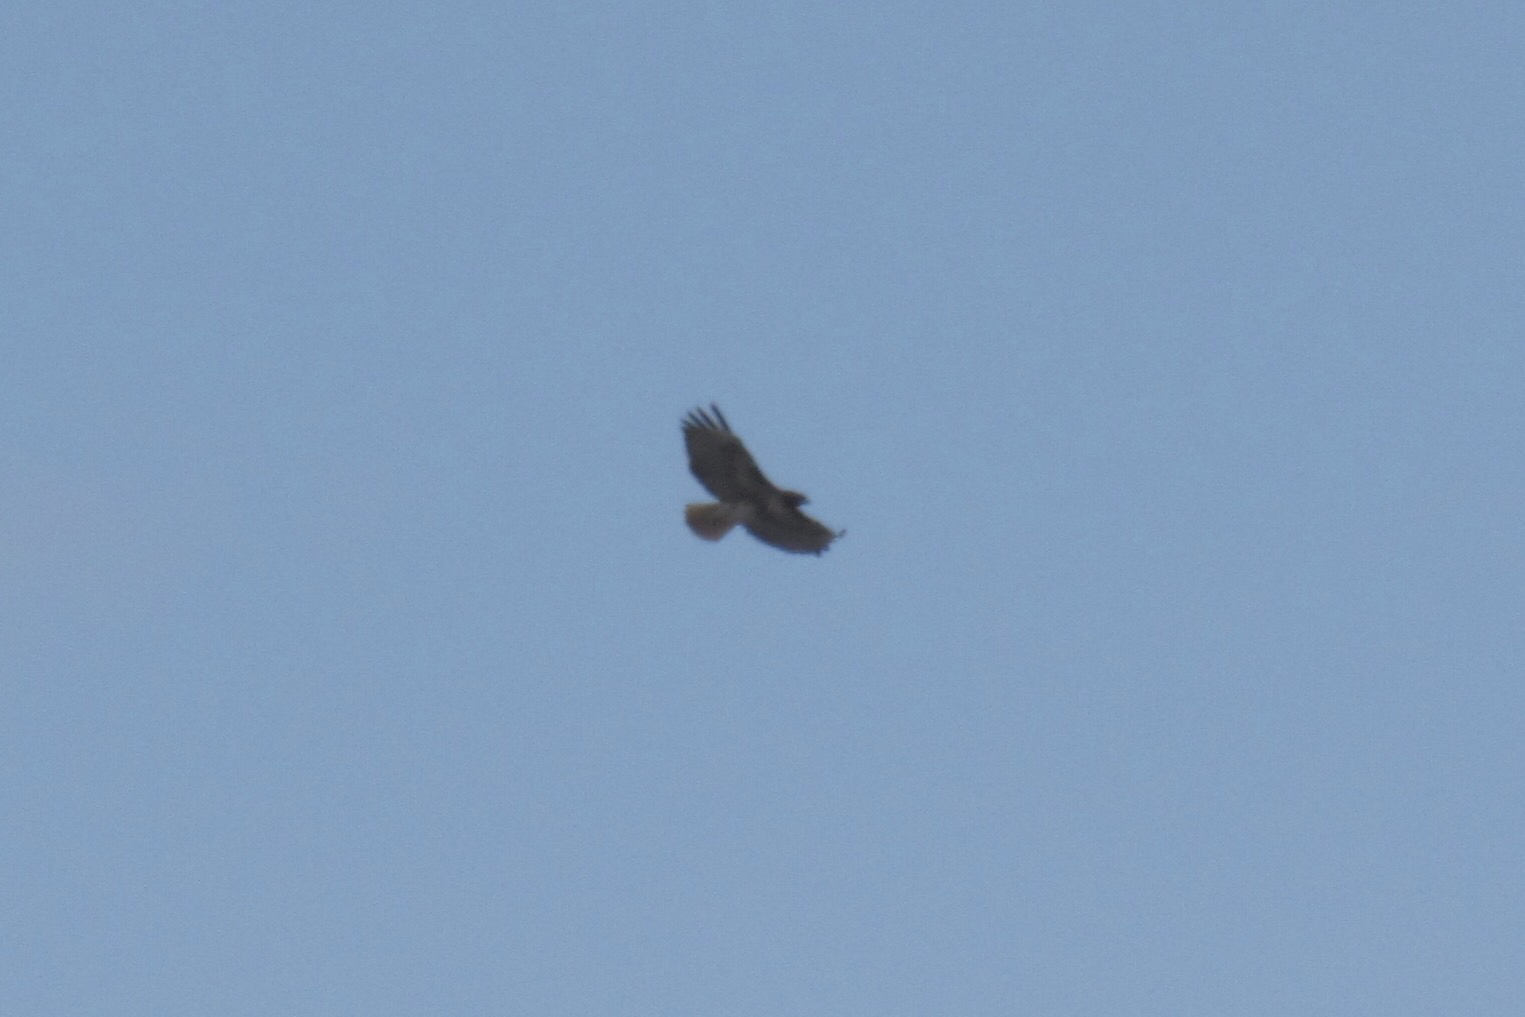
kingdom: Animalia
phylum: Chordata
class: Aves
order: Accipitriformes
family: Accipitridae
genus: Buteo
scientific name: Buteo jamaicensis
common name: Red-tailed hawk
